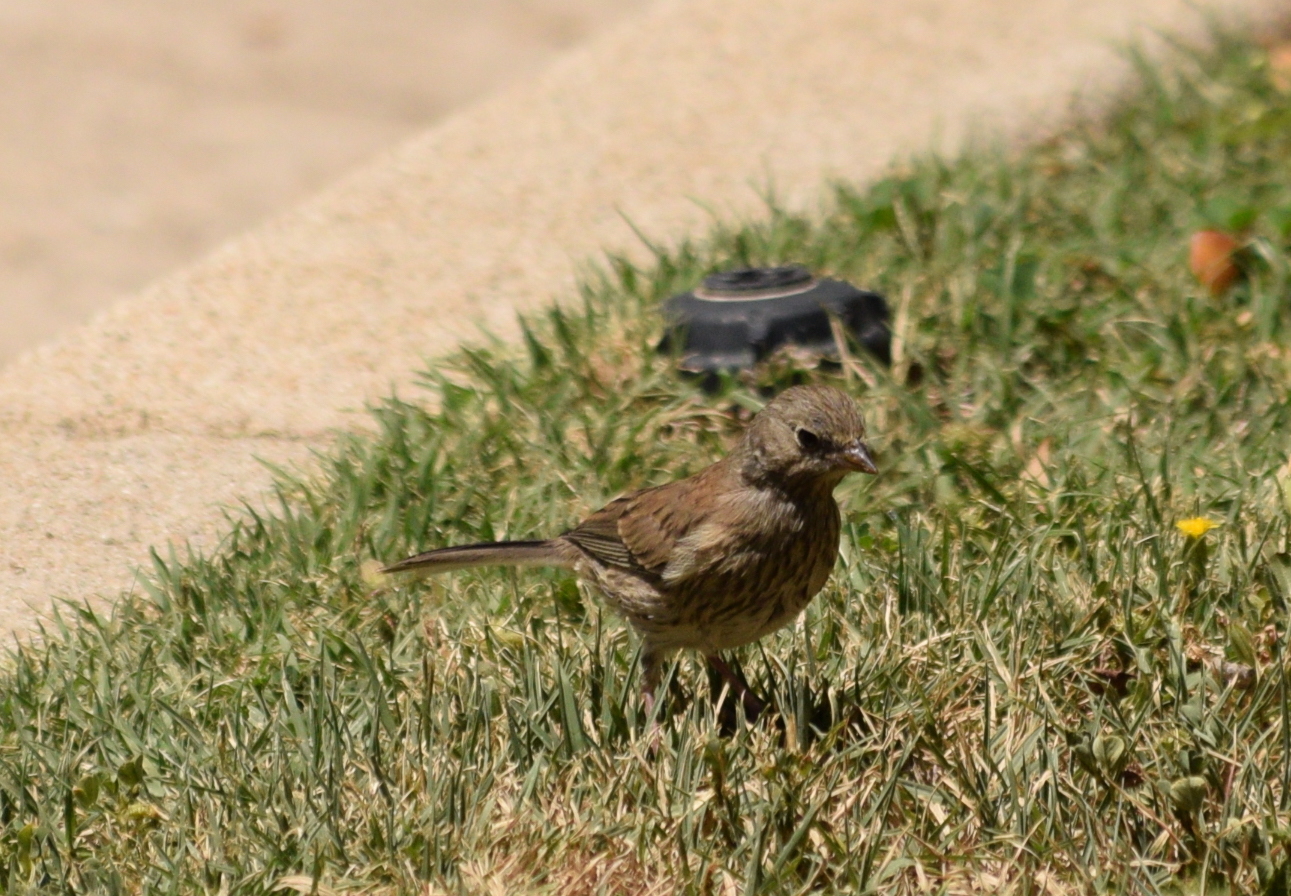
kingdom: Animalia
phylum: Chordata
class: Aves
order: Passeriformes
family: Passerellidae
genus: Junco
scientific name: Junco hyemalis
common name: Dark-eyed junco
